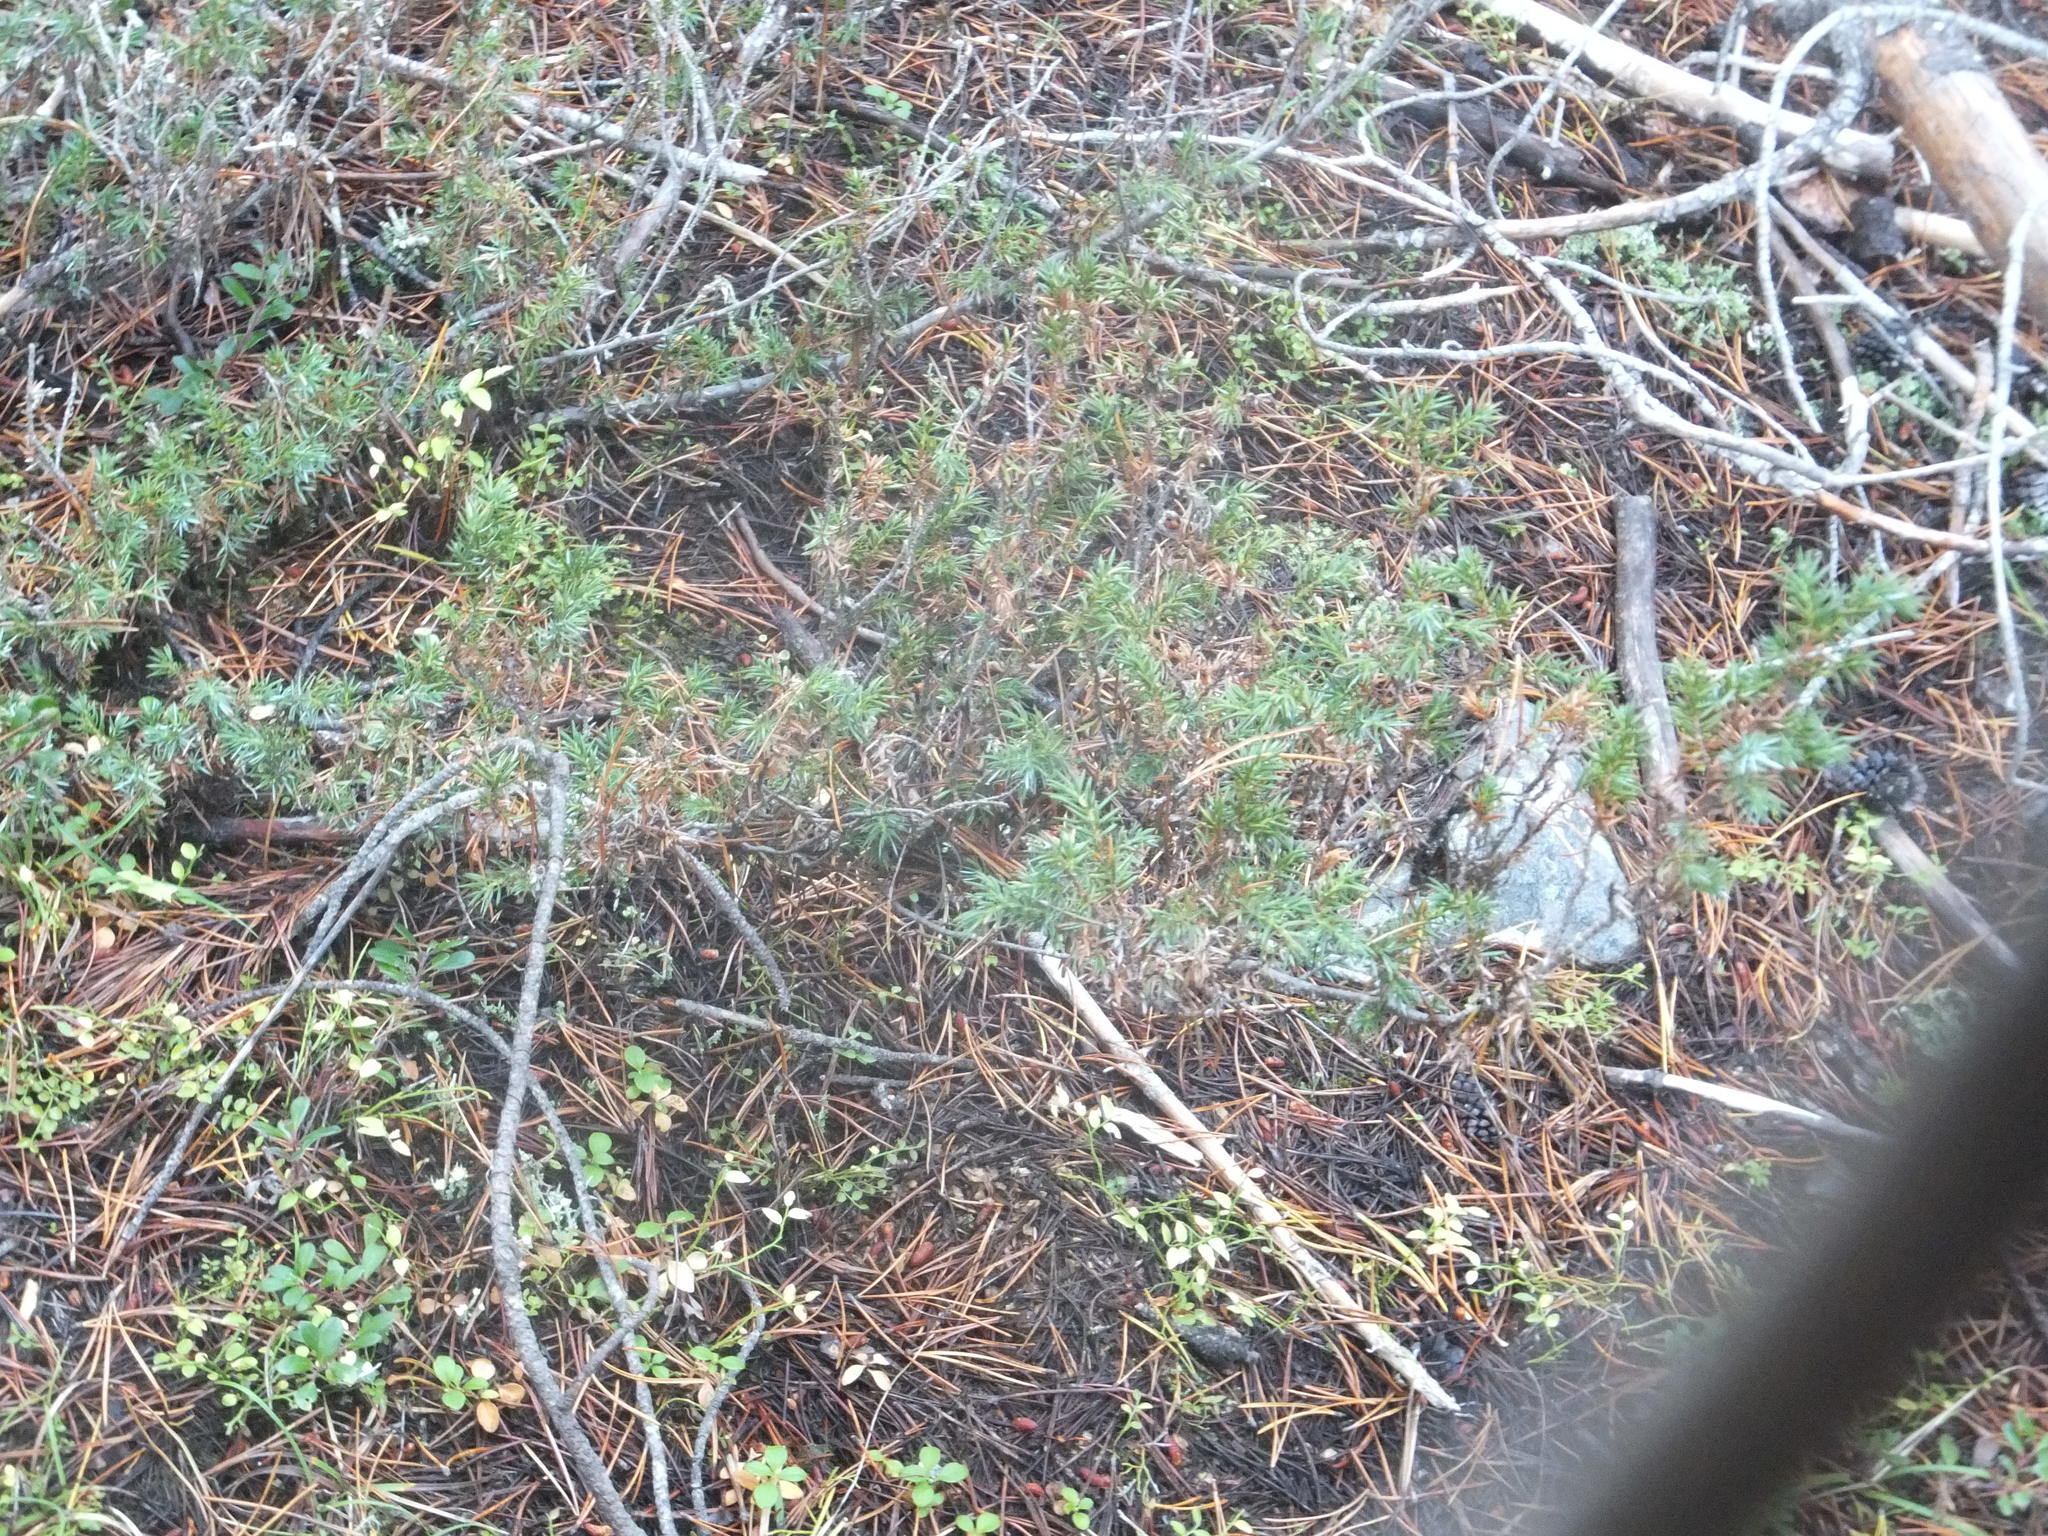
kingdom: Plantae
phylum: Tracheophyta
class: Pinopsida
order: Pinales
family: Cupressaceae
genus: Juniperus
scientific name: Juniperus communis
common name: Common juniper
